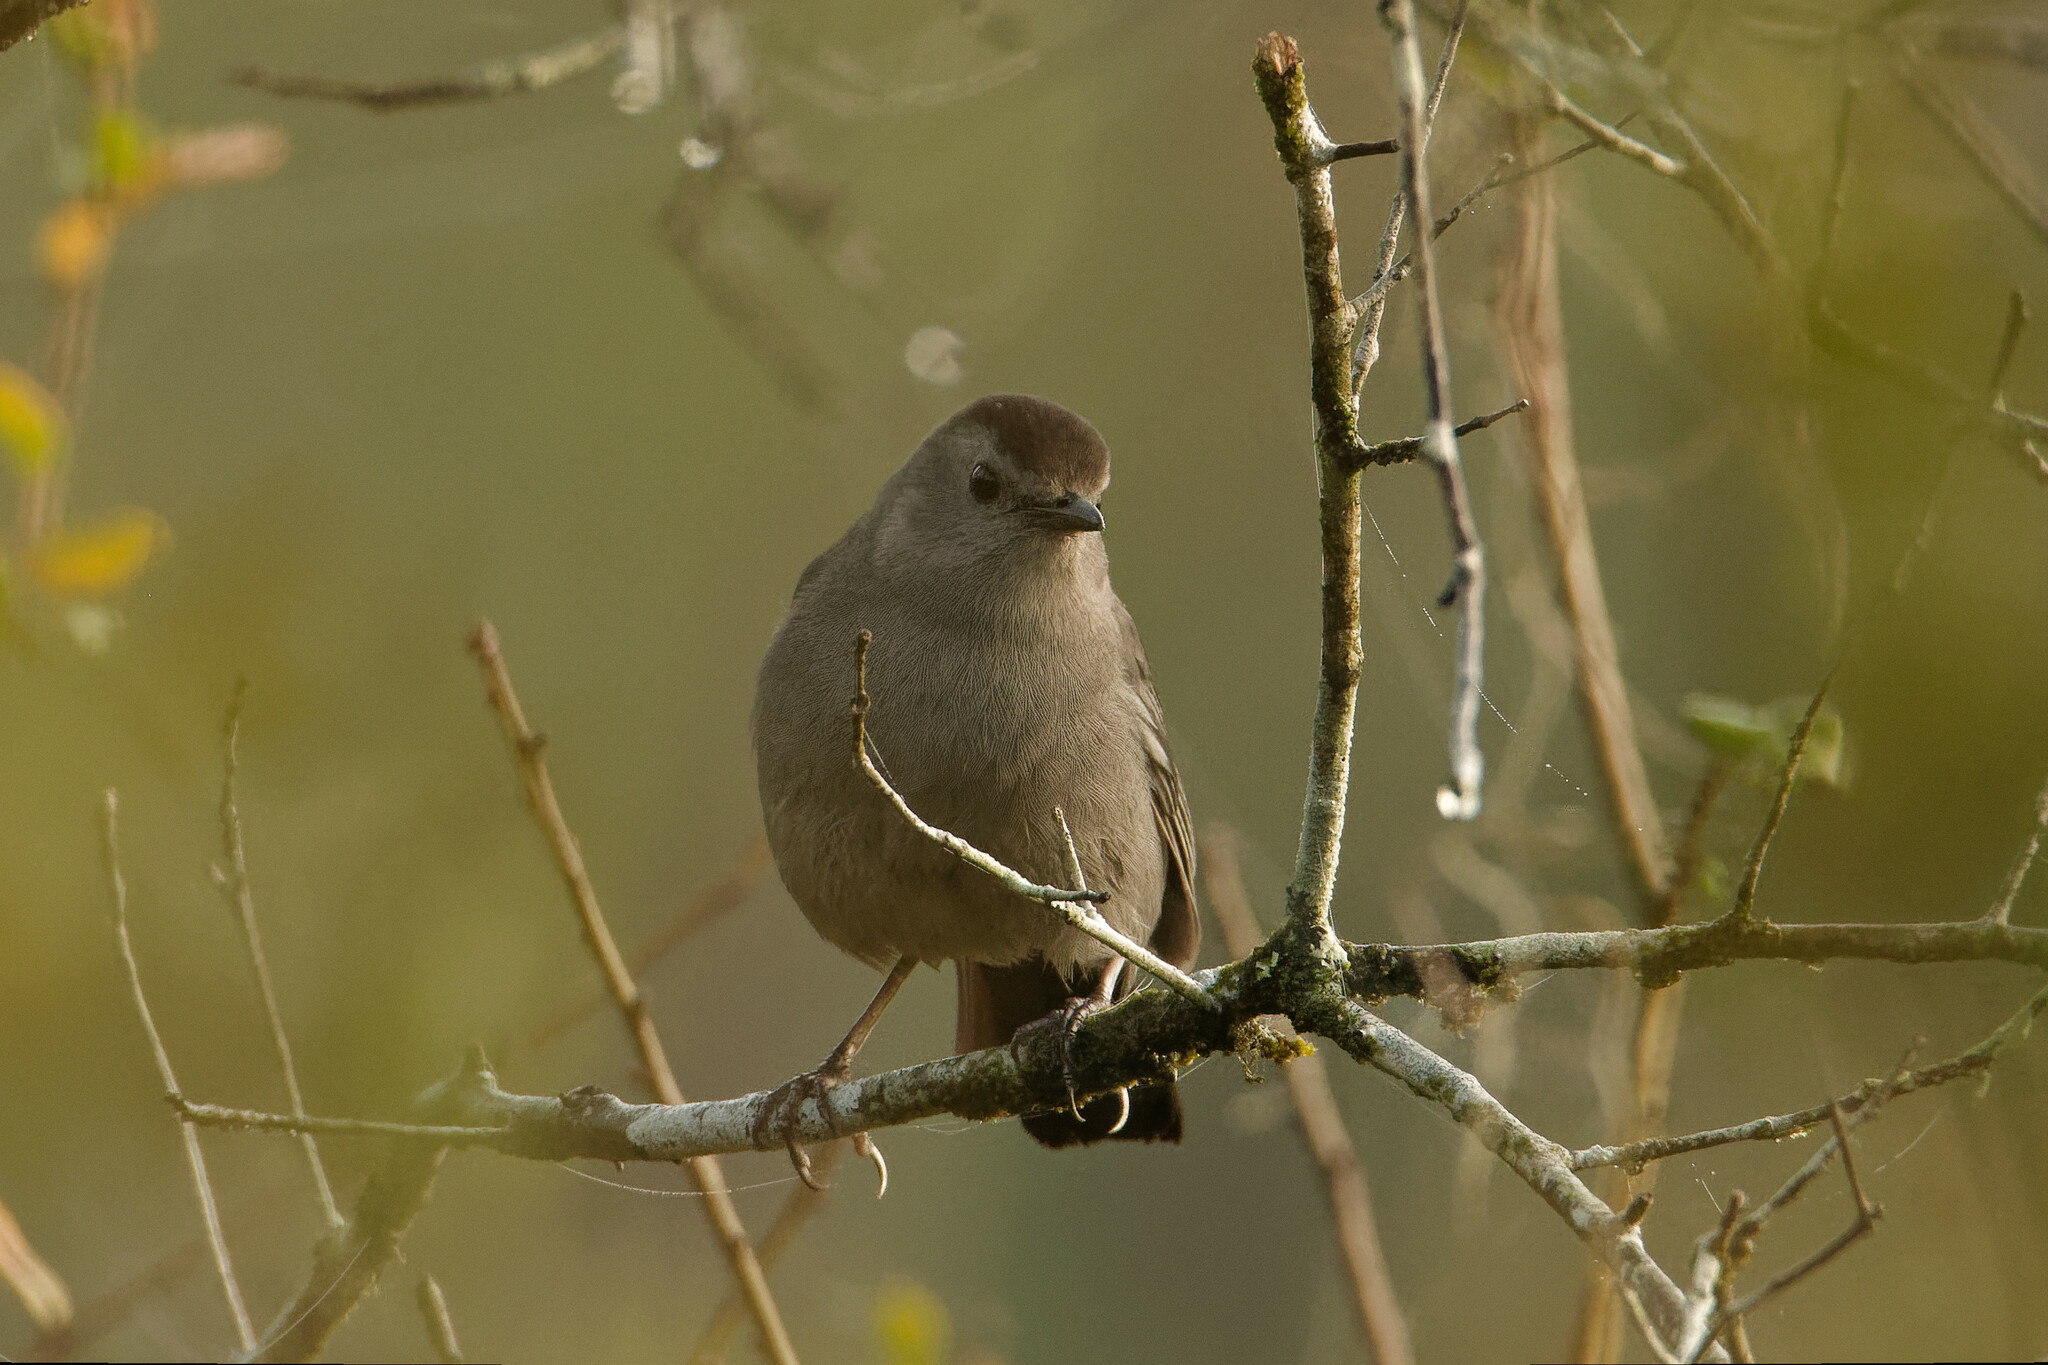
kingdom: Animalia
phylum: Chordata
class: Aves
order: Passeriformes
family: Mimidae
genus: Dumetella
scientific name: Dumetella carolinensis
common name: Gray catbird
